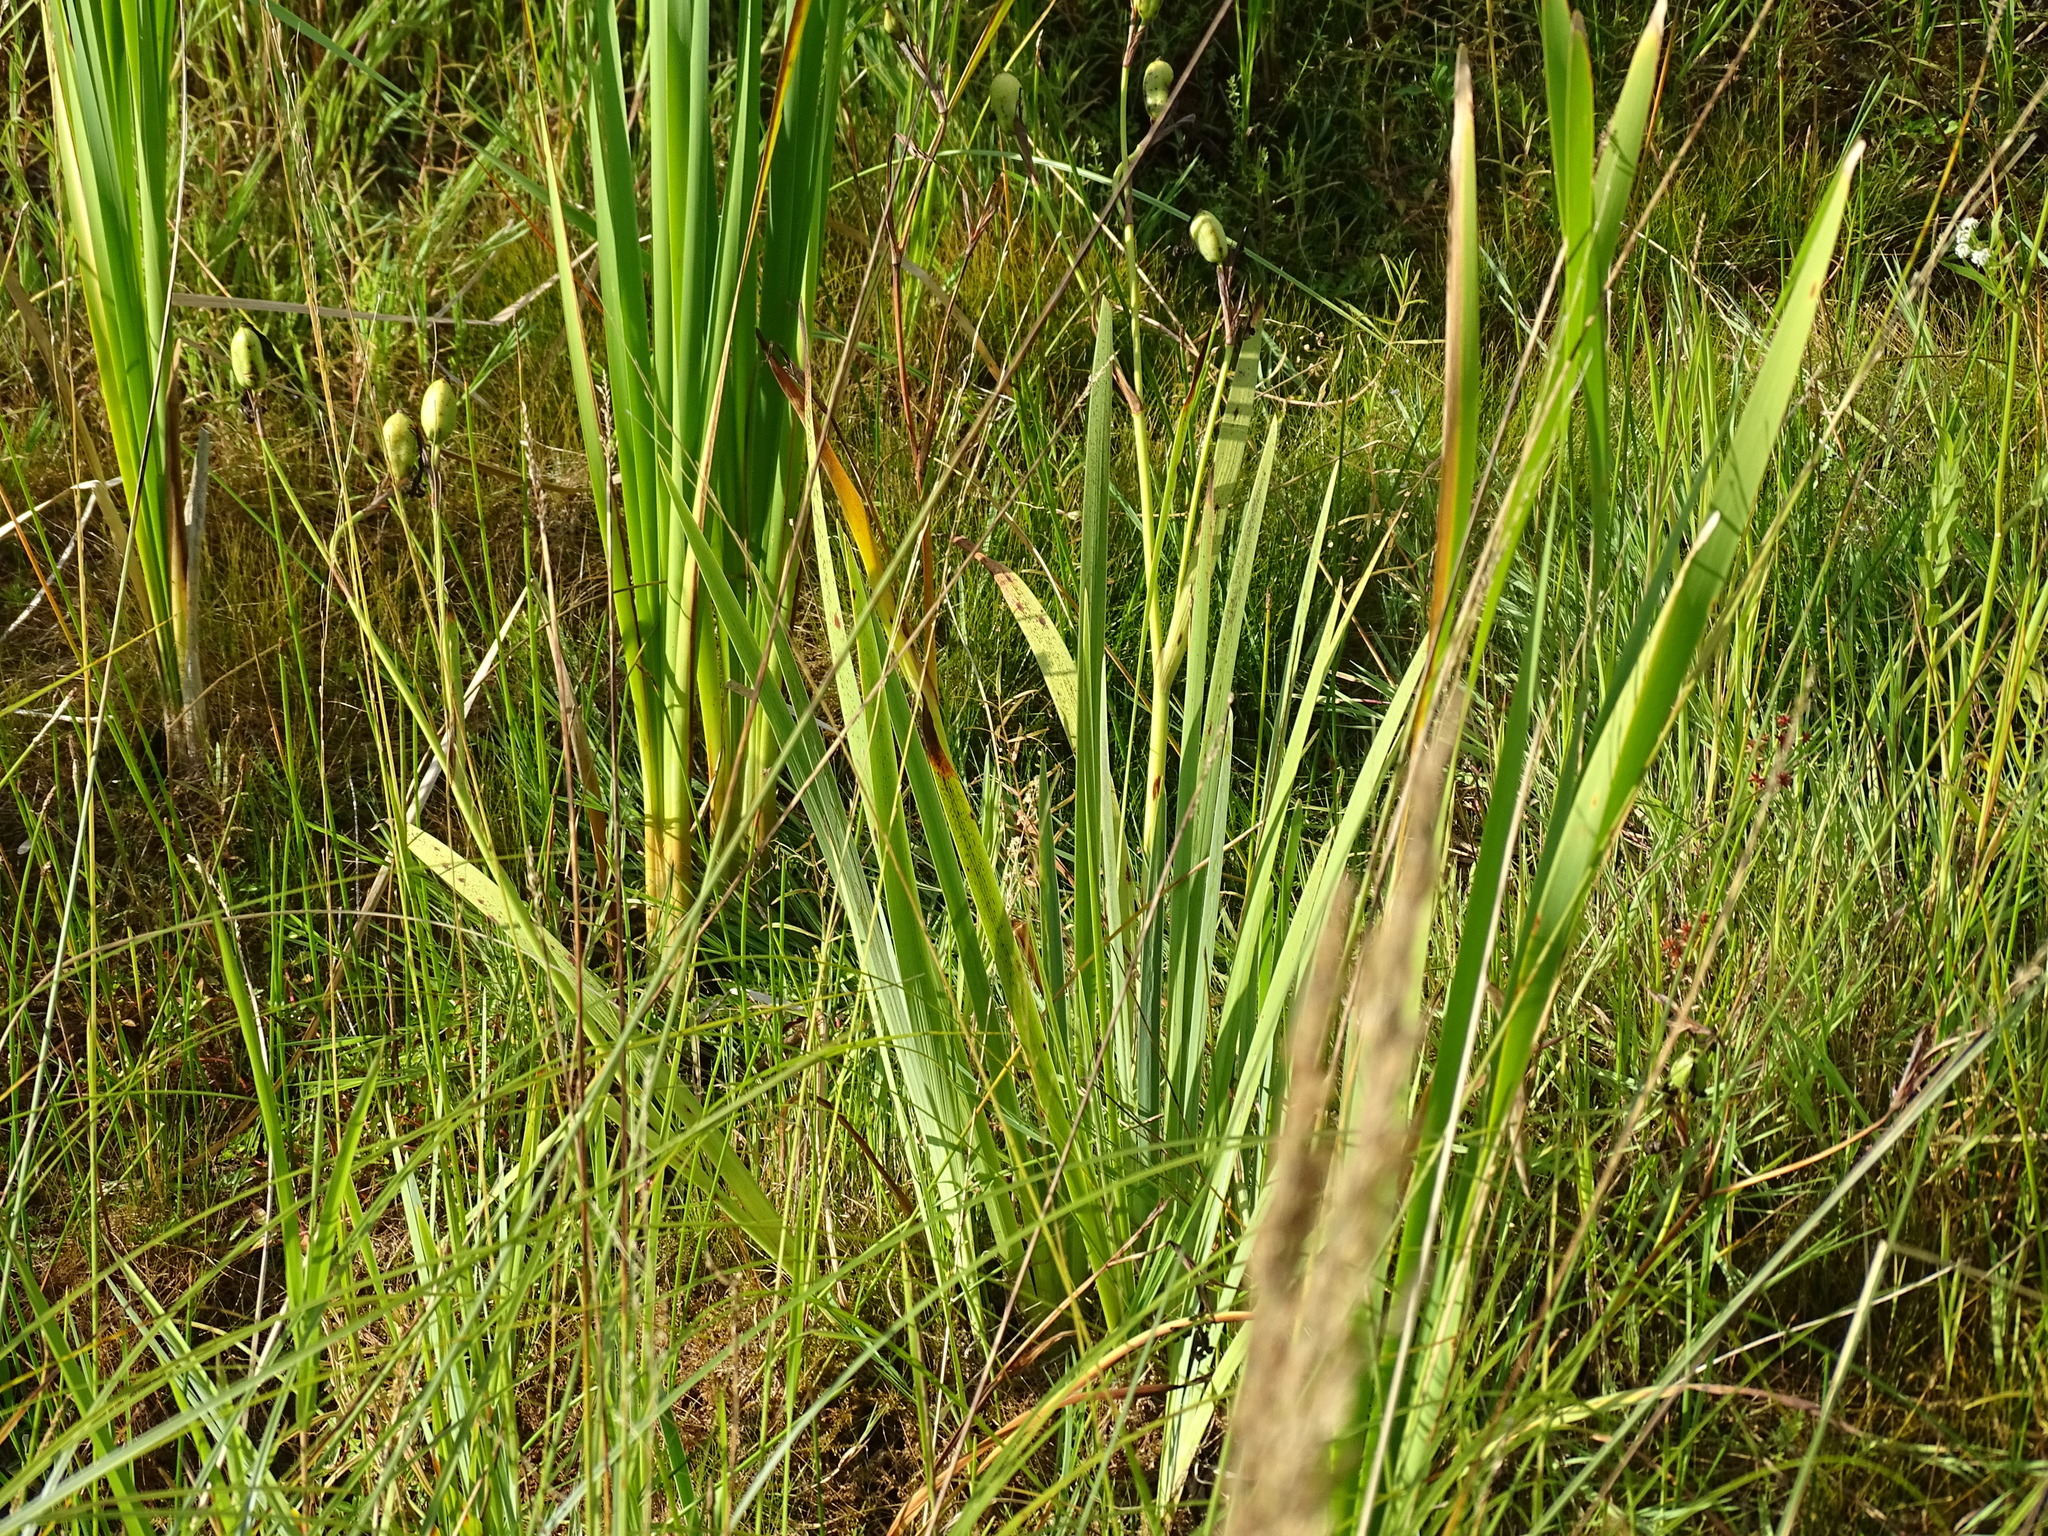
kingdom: Plantae
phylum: Tracheophyta
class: Liliopsida
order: Asparagales
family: Iridaceae
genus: Iris
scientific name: Iris versicolor
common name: Purple iris
